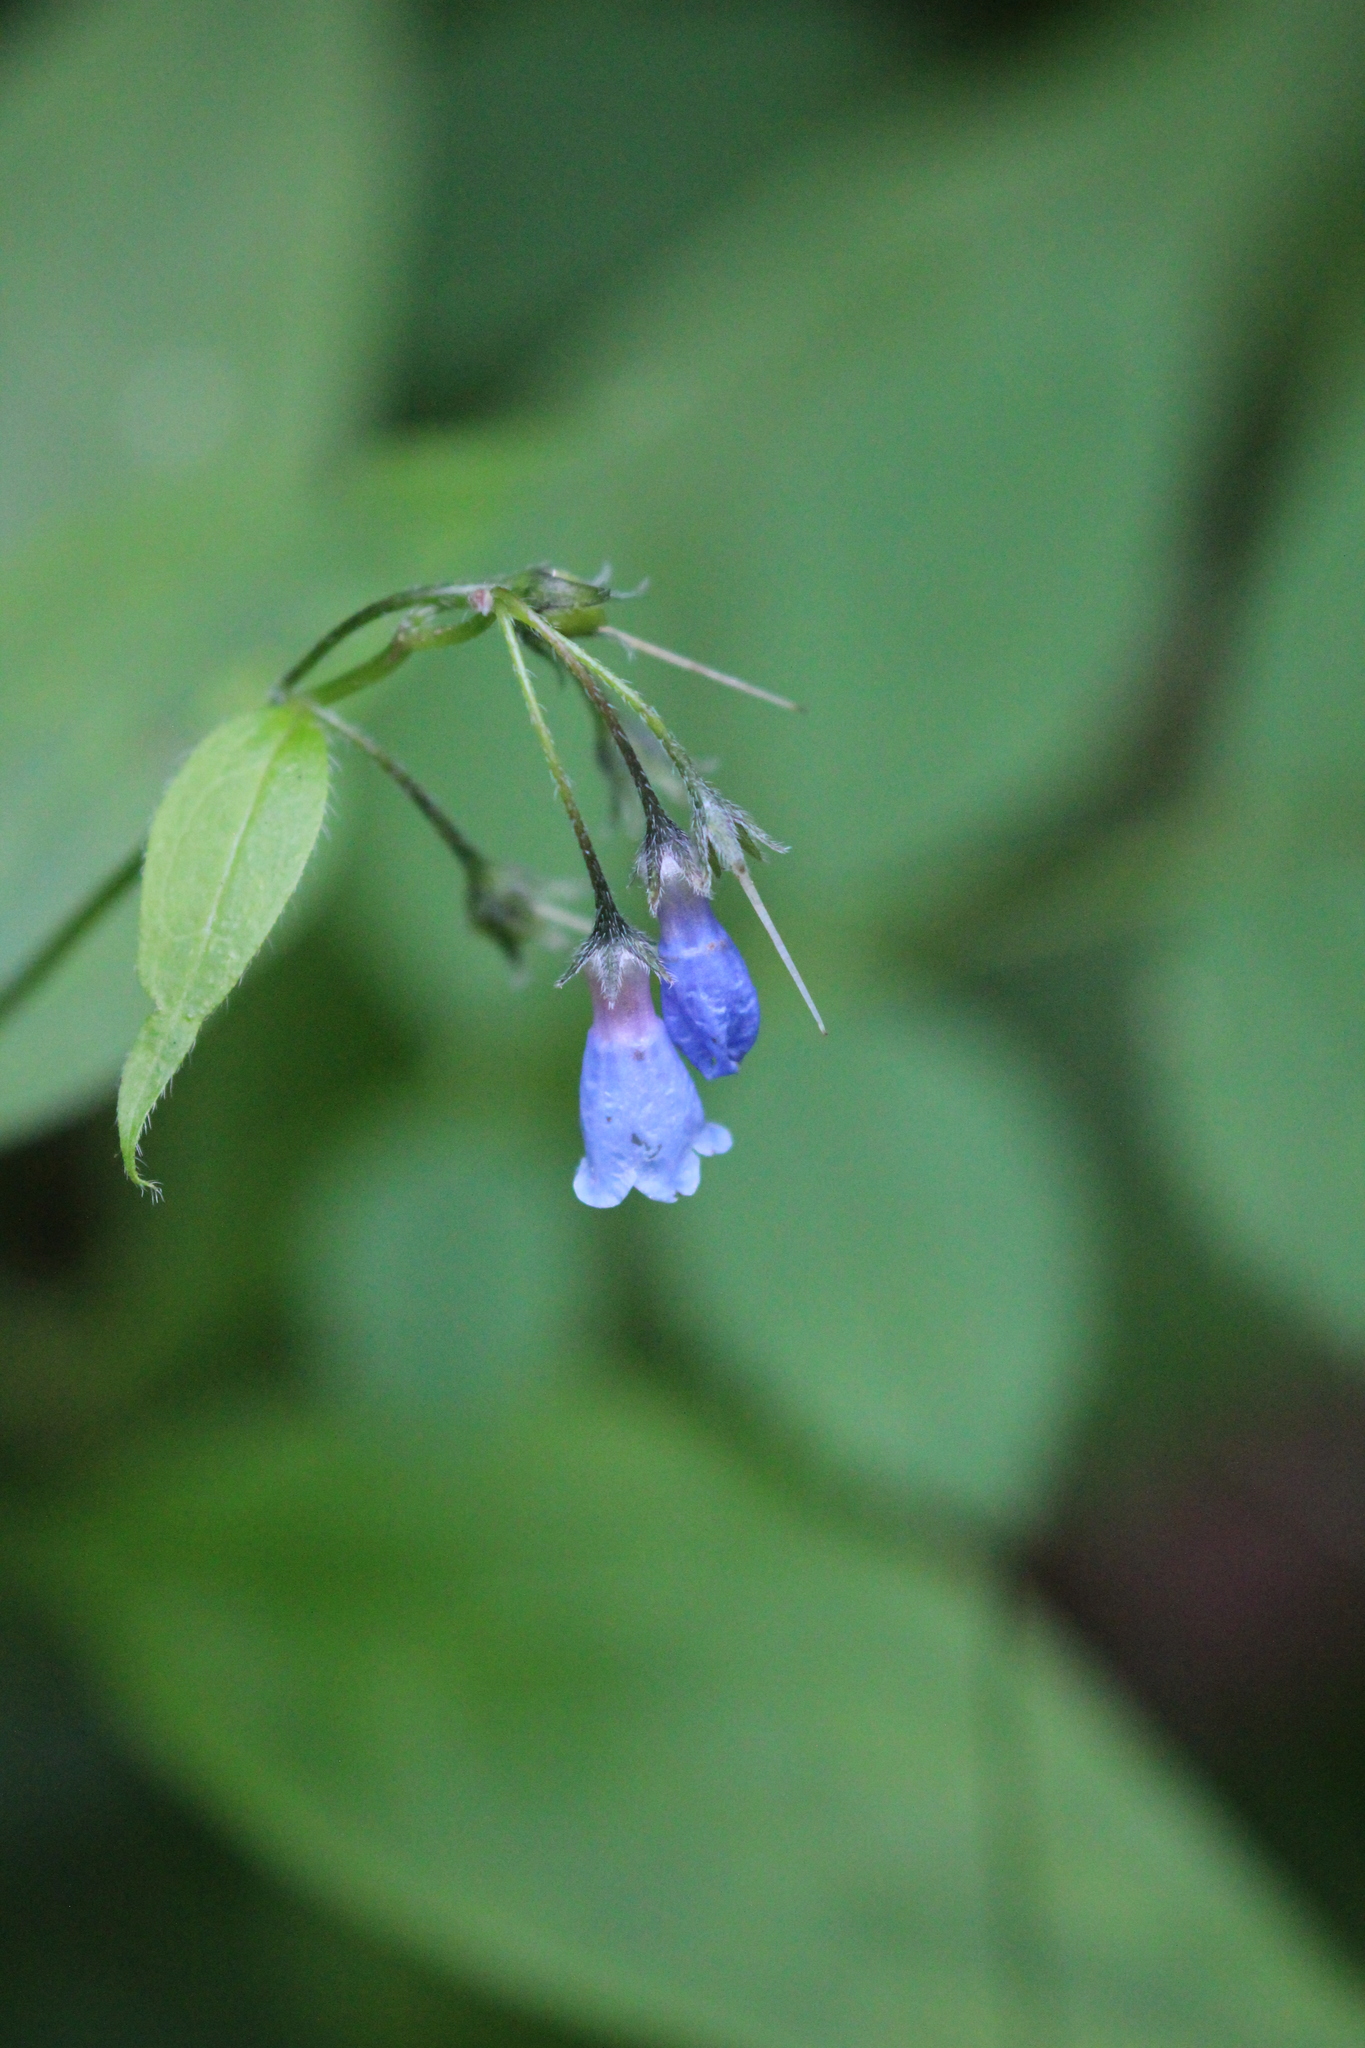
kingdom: Plantae
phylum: Tracheophyta
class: Magnoliopsida
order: Boraginales
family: Boraginaceae
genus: Mertensia
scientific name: Mertensia paniculata
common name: Panicled bluebells
